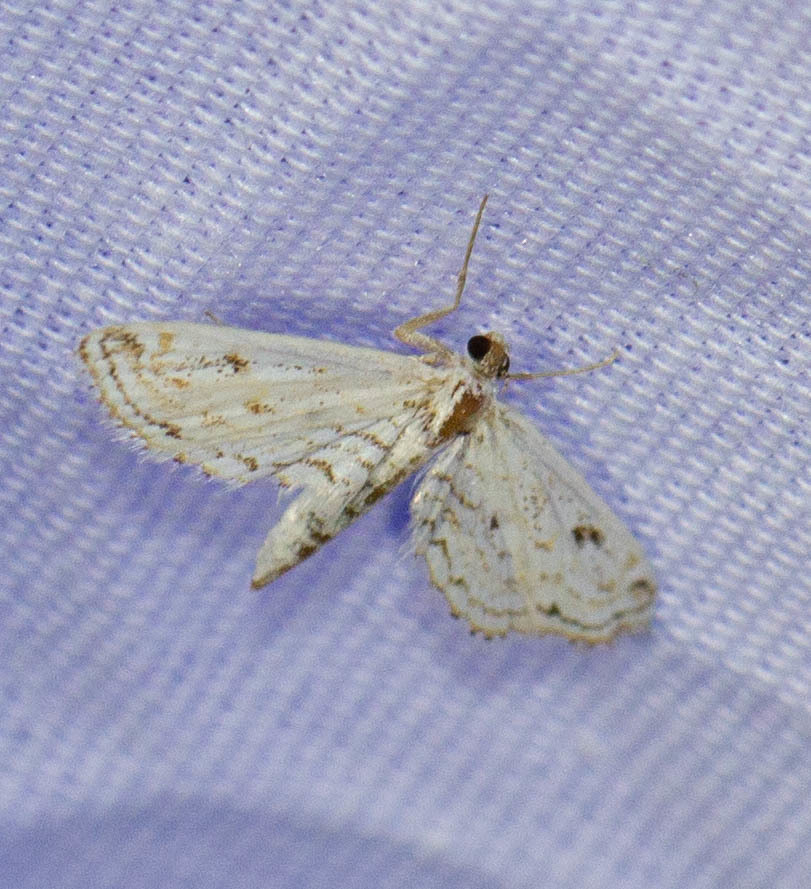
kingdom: Animalia
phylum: Arthropoda
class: Insecta
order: Lepidoptera
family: Crambidae
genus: Parapoynx
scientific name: Parapoynx allionealis
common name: Bladderwort casemaker
